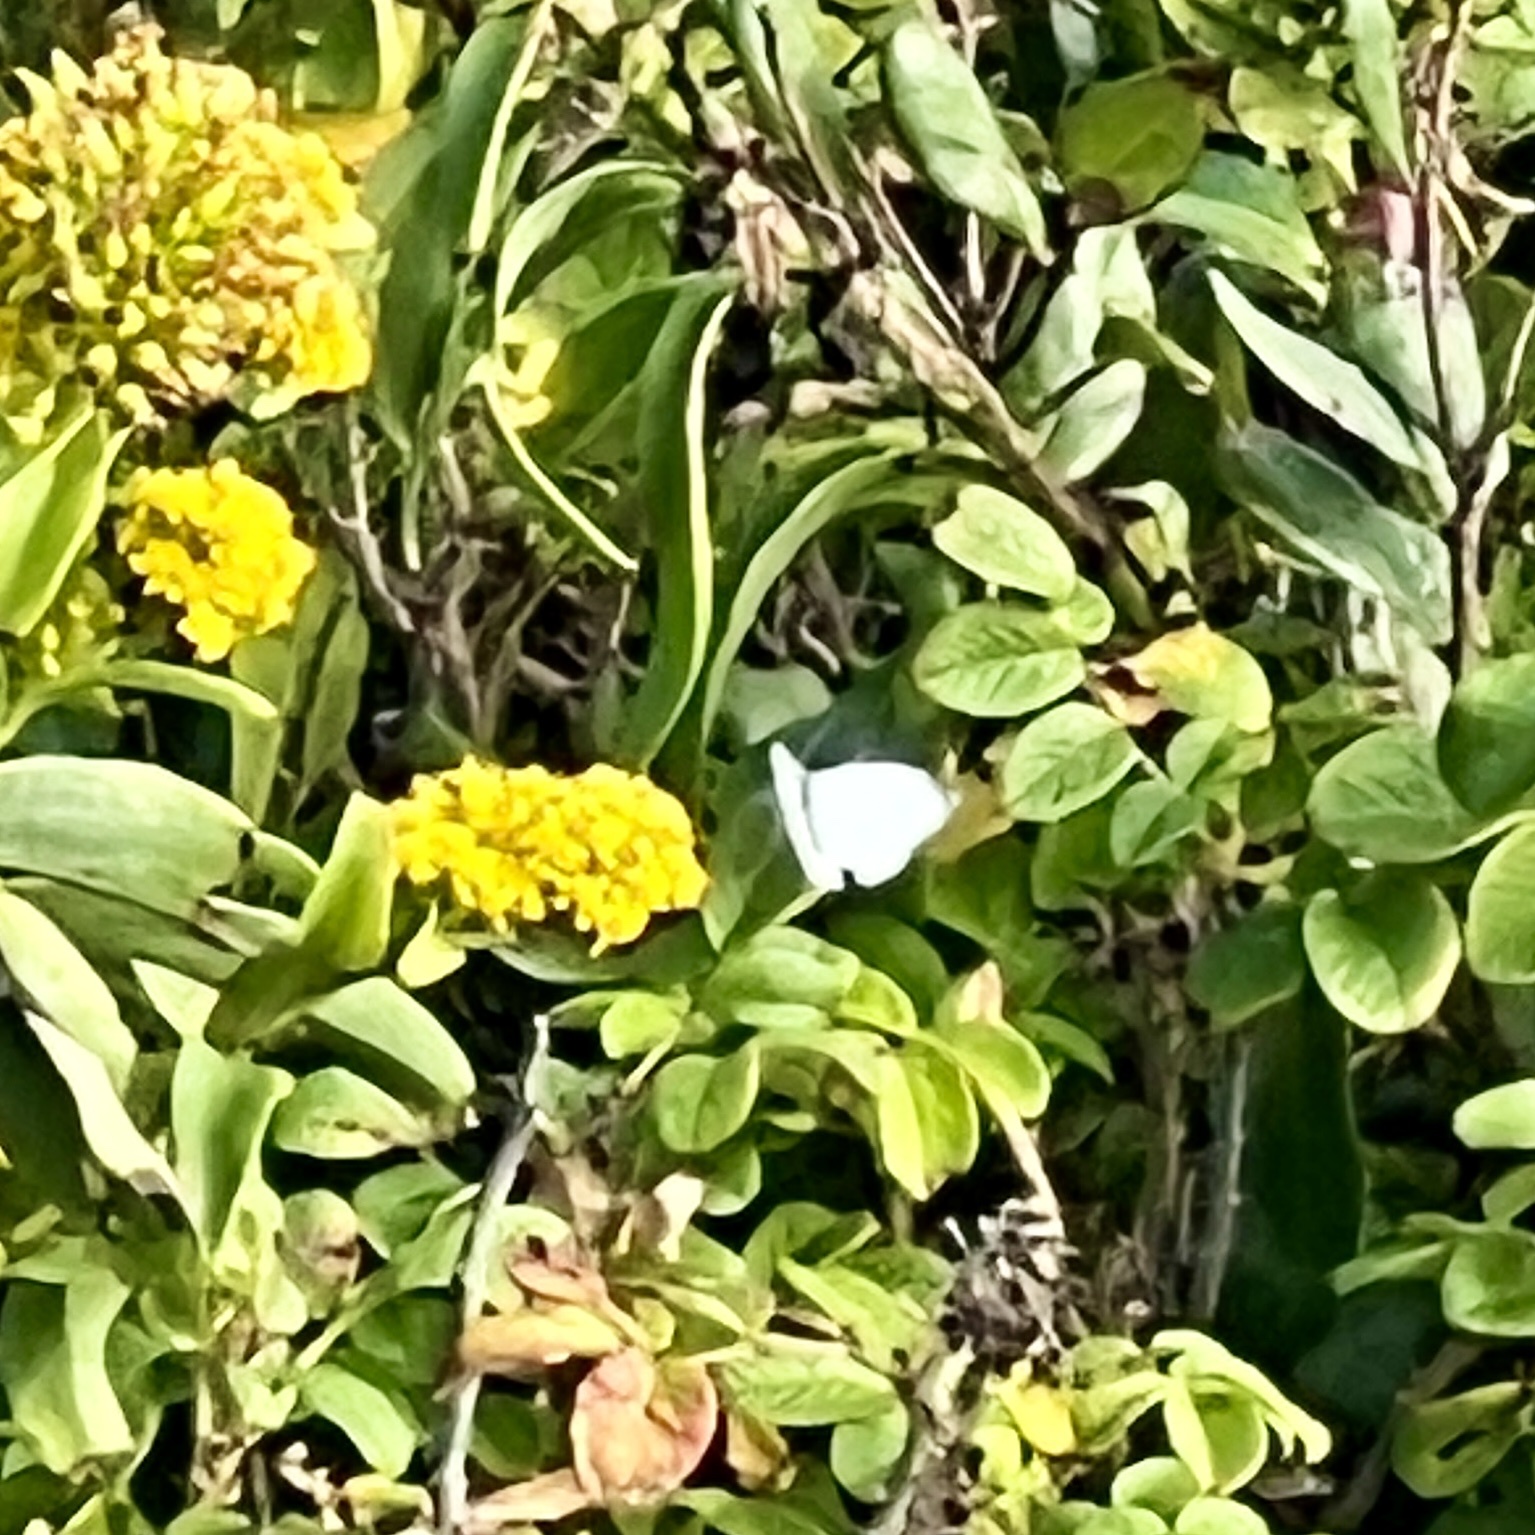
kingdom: Animalia
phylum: Arthropoda
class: Insecta
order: Lepidoptera
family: Pieridae
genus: Pieris
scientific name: Pieris rapae
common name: Small white
